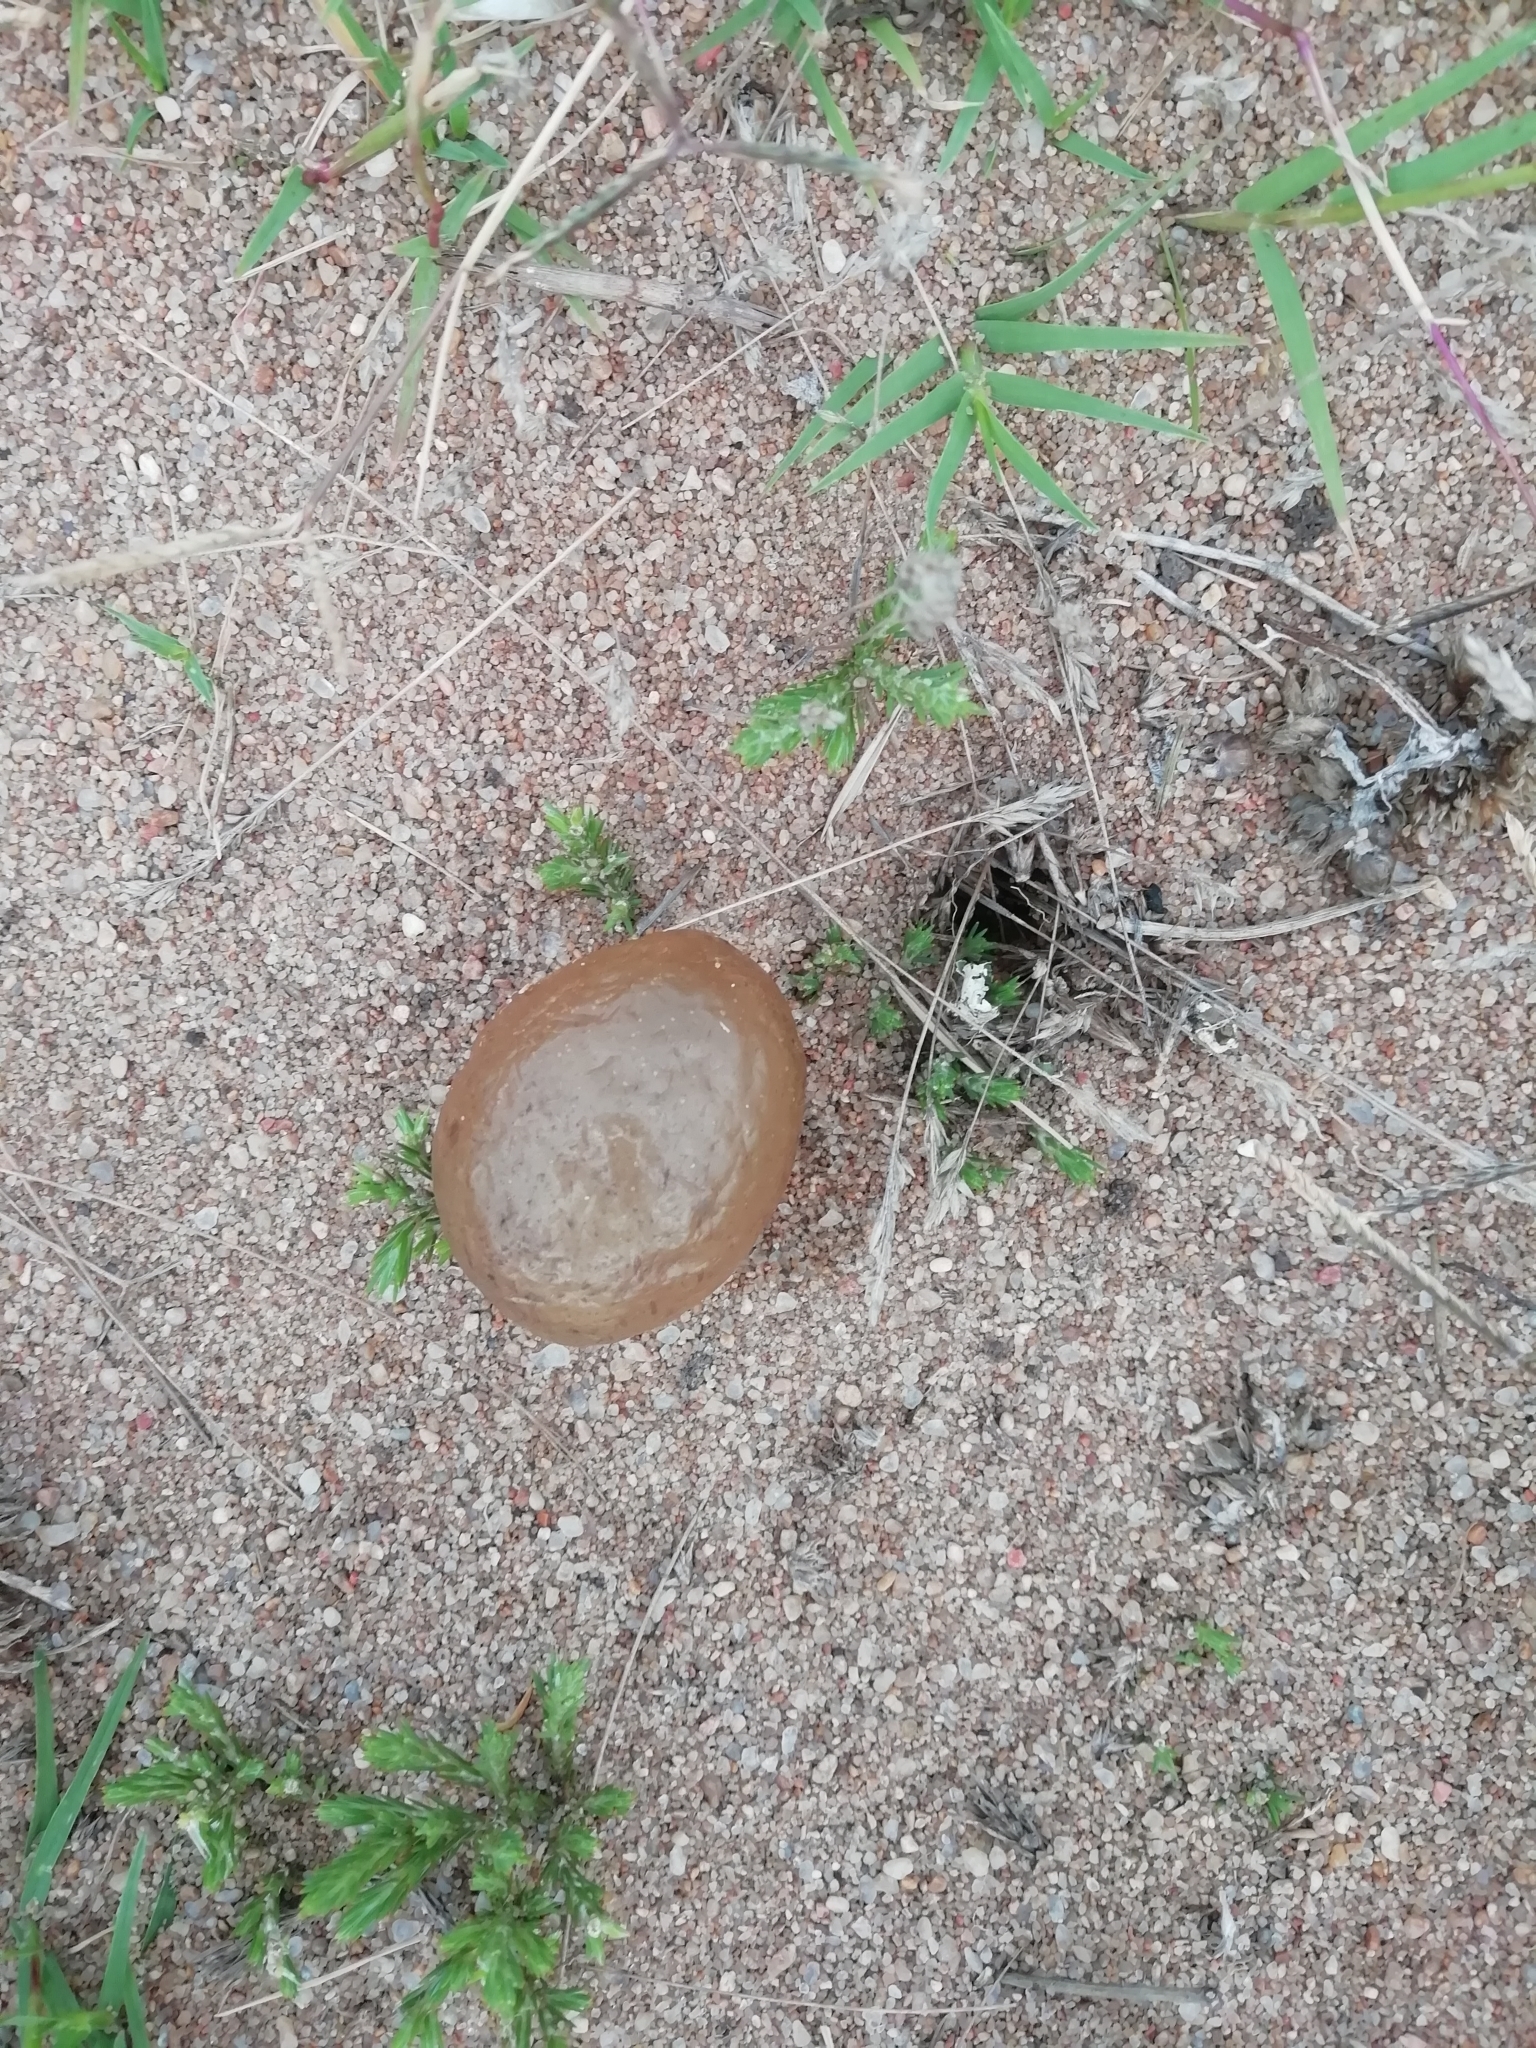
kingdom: Animalia
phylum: Mollusca
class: Gastropoda
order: Neogastropoda
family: Volutidae
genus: Pachycymbiola
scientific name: Pachycymbiola brasiliana
